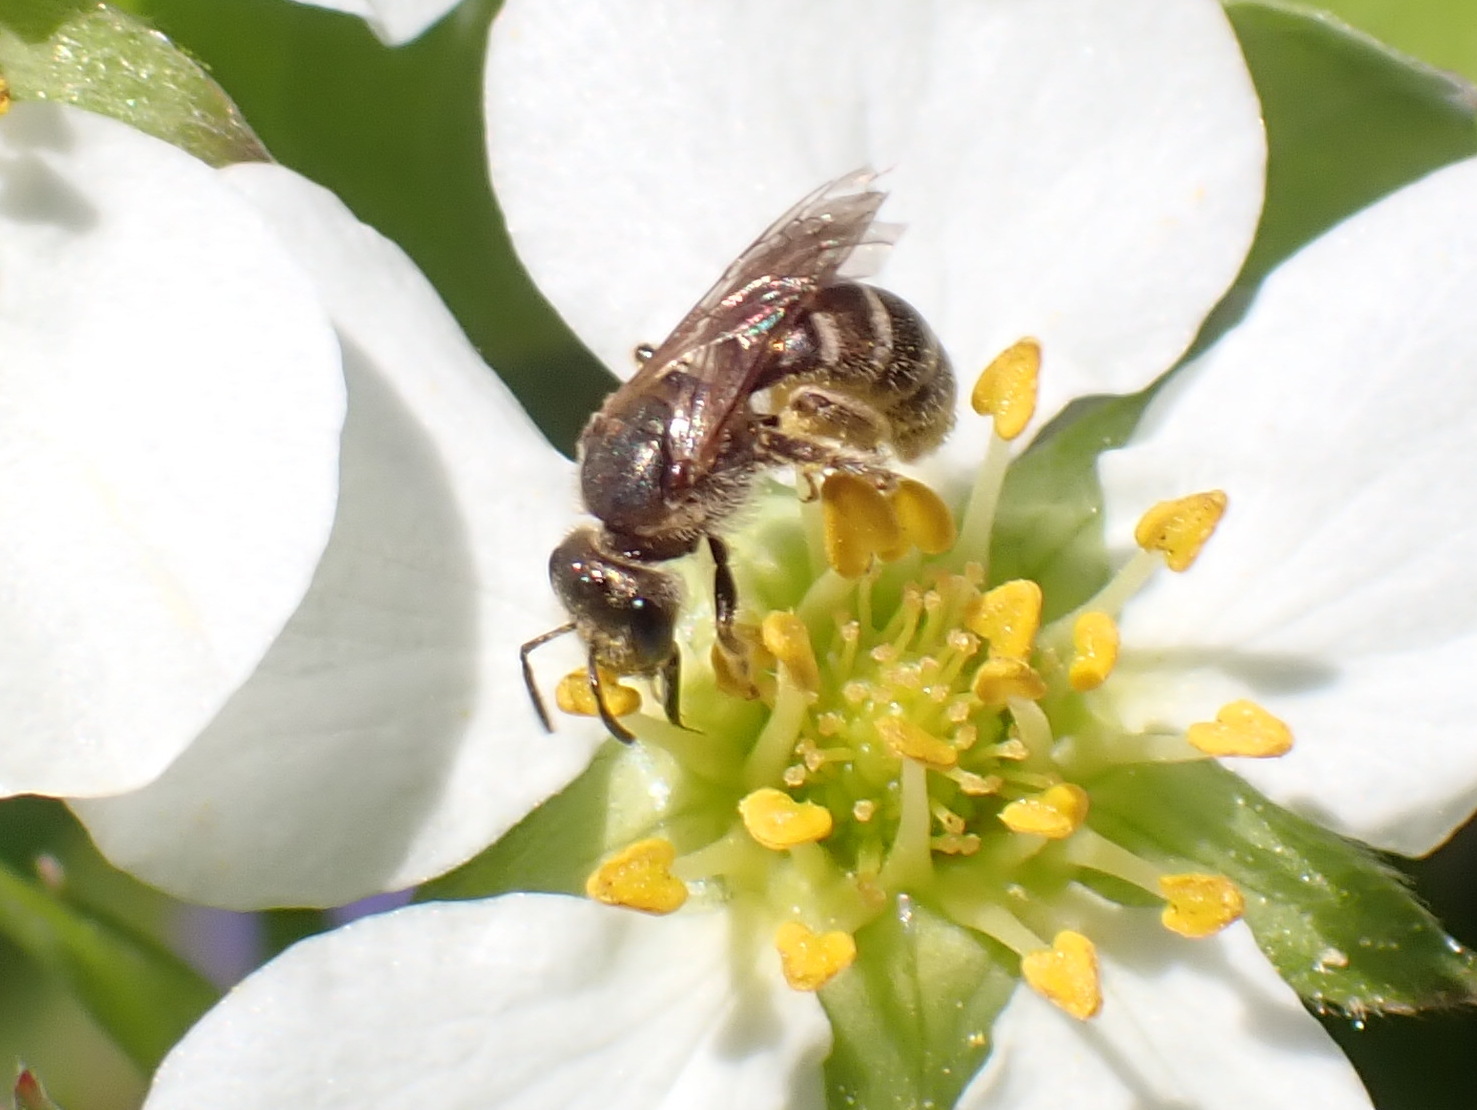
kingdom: Animalia
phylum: Arthropoda
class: Insecta
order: Hymenoptera
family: Halictidae
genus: Halictus
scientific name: Halictus confusus
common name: Southern bronze furrow bee
